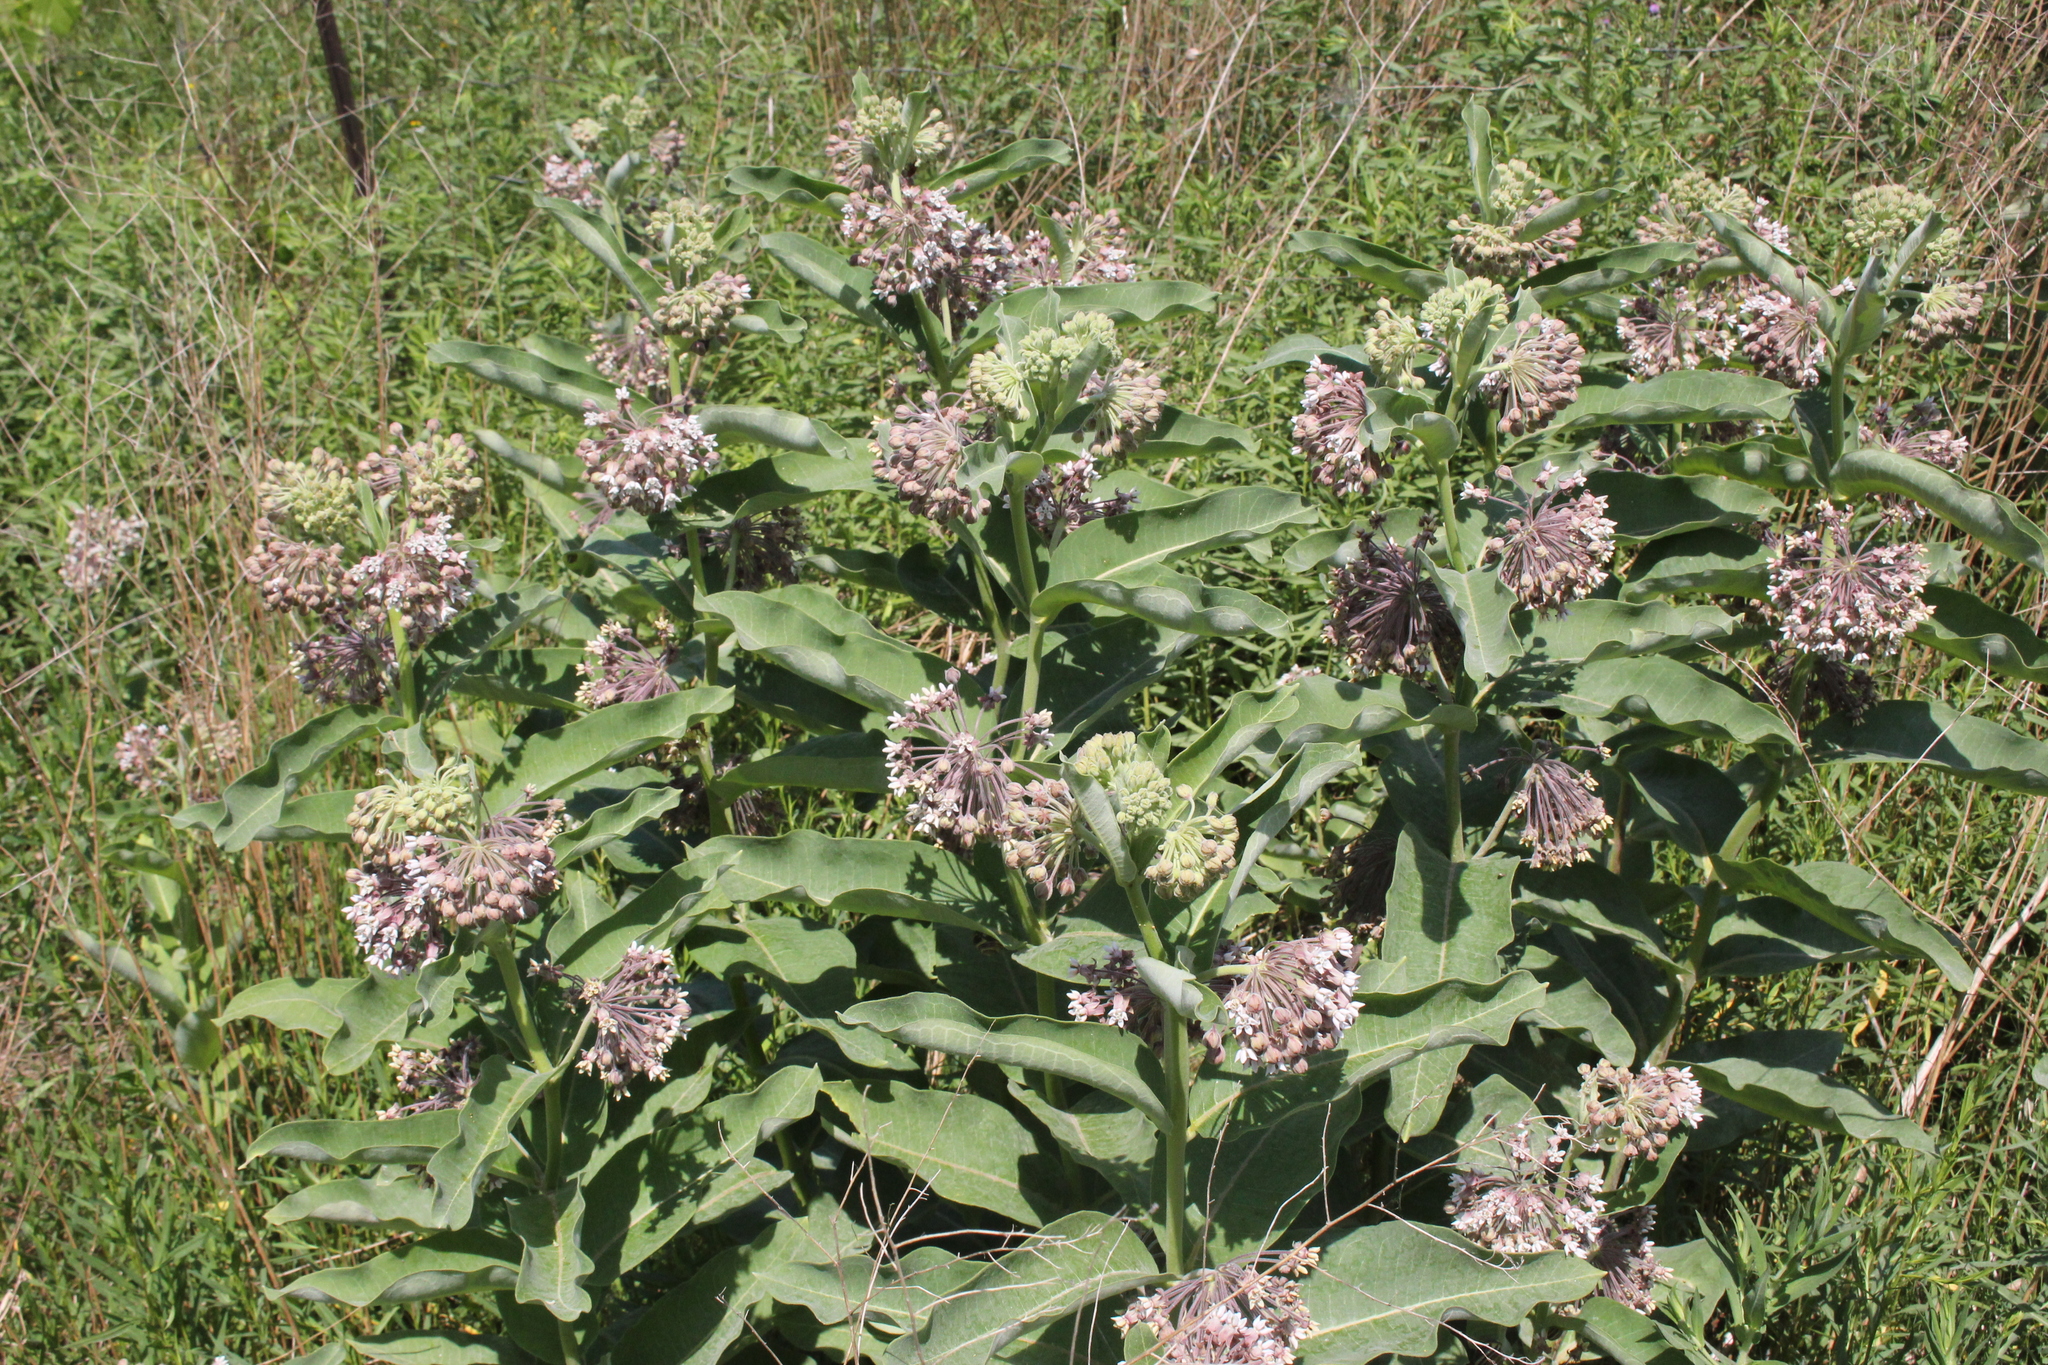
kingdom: Plantae
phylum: Tracheophyta
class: Magnoliopsida
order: Gentianales
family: Apocynaceae
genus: Asclepias
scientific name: Asclepias syriaca
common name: Common milkweed
